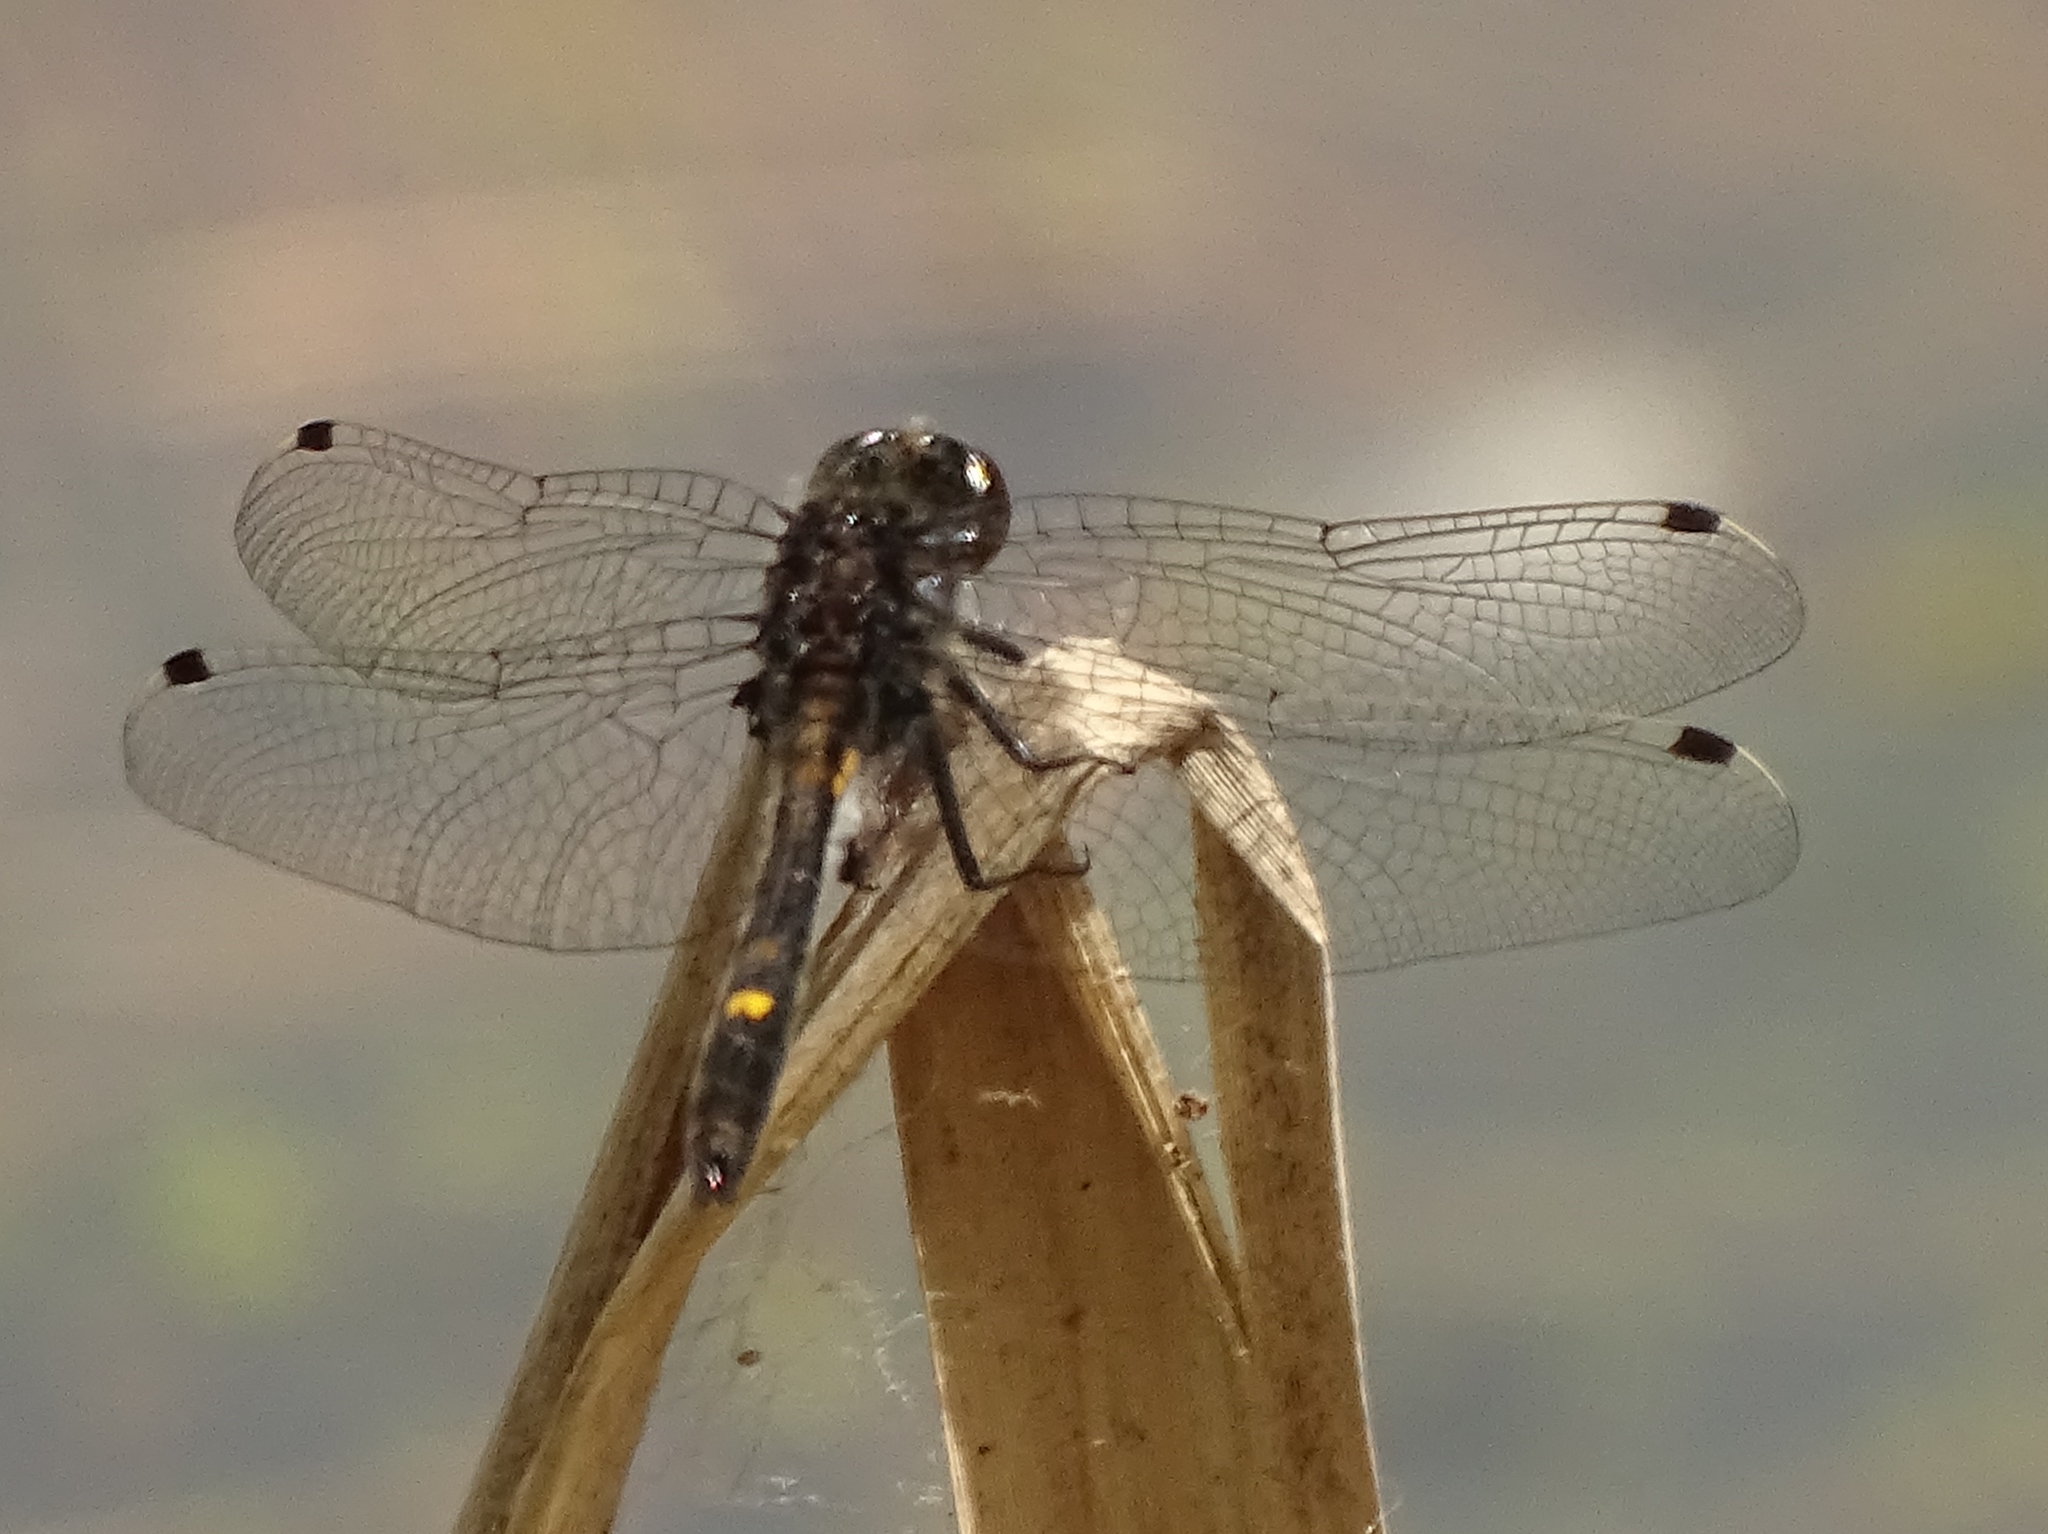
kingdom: Animalia
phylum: Arthropoda
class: Insecta
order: Odonata
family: Libellulidae
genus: Leucorrhinia
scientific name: Leucorrhinia intacta
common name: Dot-tailed whiteface
